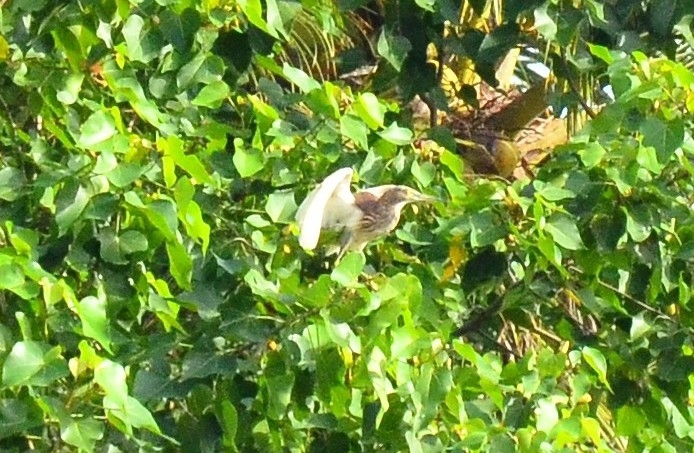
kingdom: Animalia
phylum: Chordata
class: Aves
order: Pelecaniformes
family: Ardeidae
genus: Ardeola
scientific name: Ardeola grayii
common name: Indian pond heron
